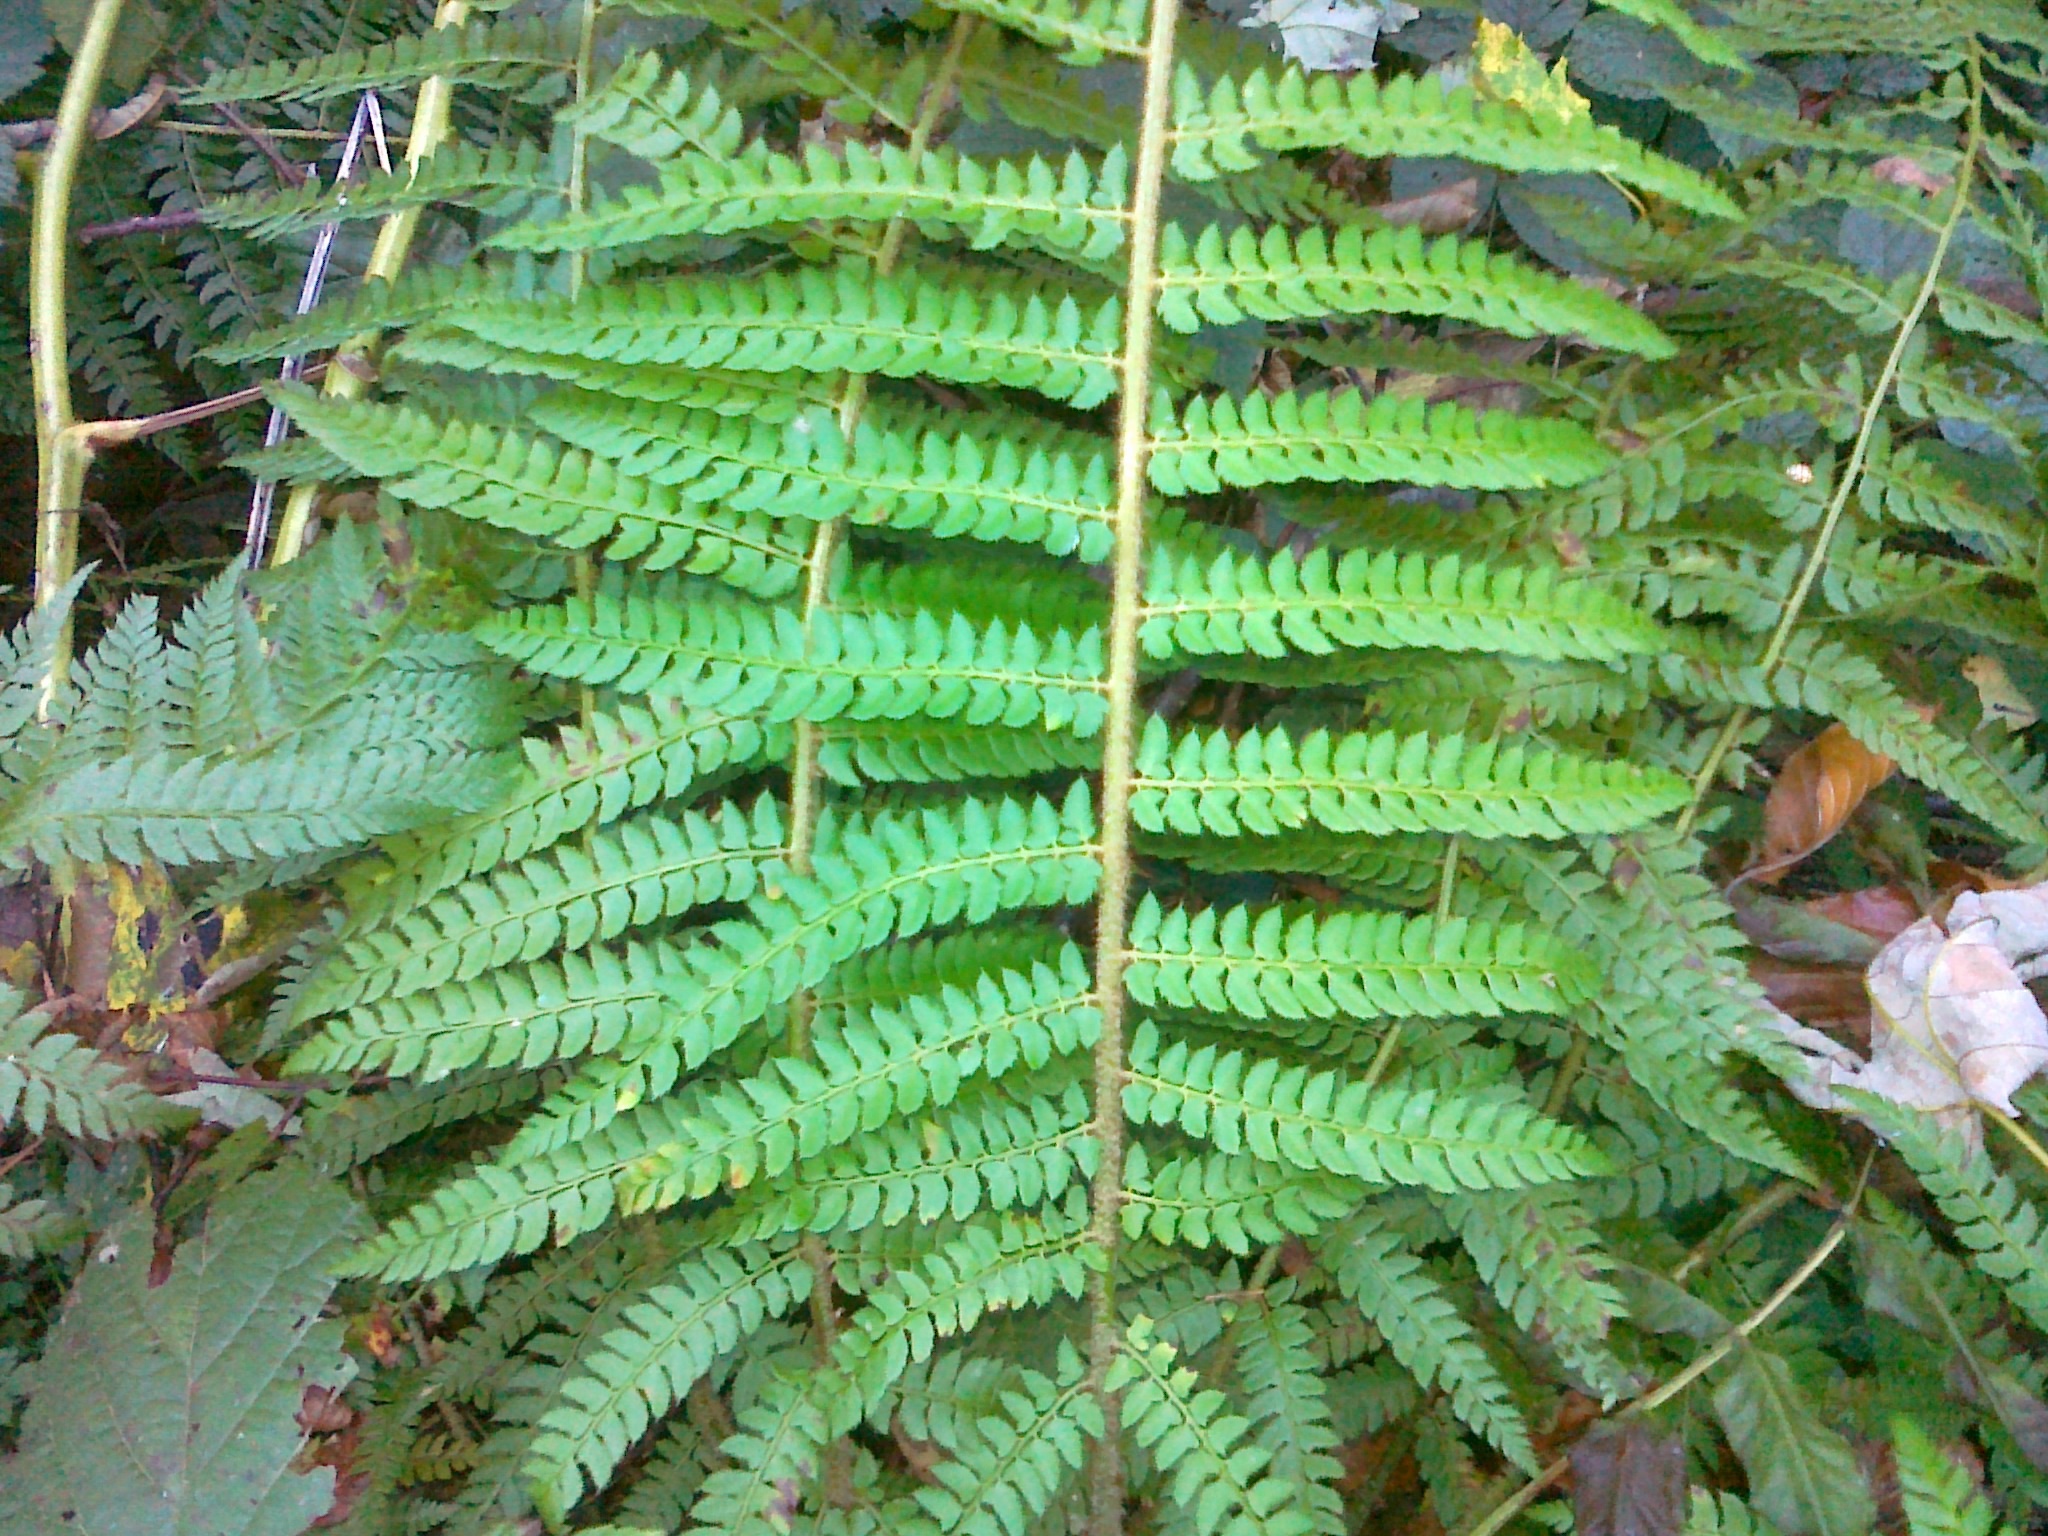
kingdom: Plantae
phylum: Tracheophyta
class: Polypodiopsida
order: Polypodiales
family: Dryopteridaceae
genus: Polystichum
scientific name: Polystichum setiferum
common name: Soft shield-fern
